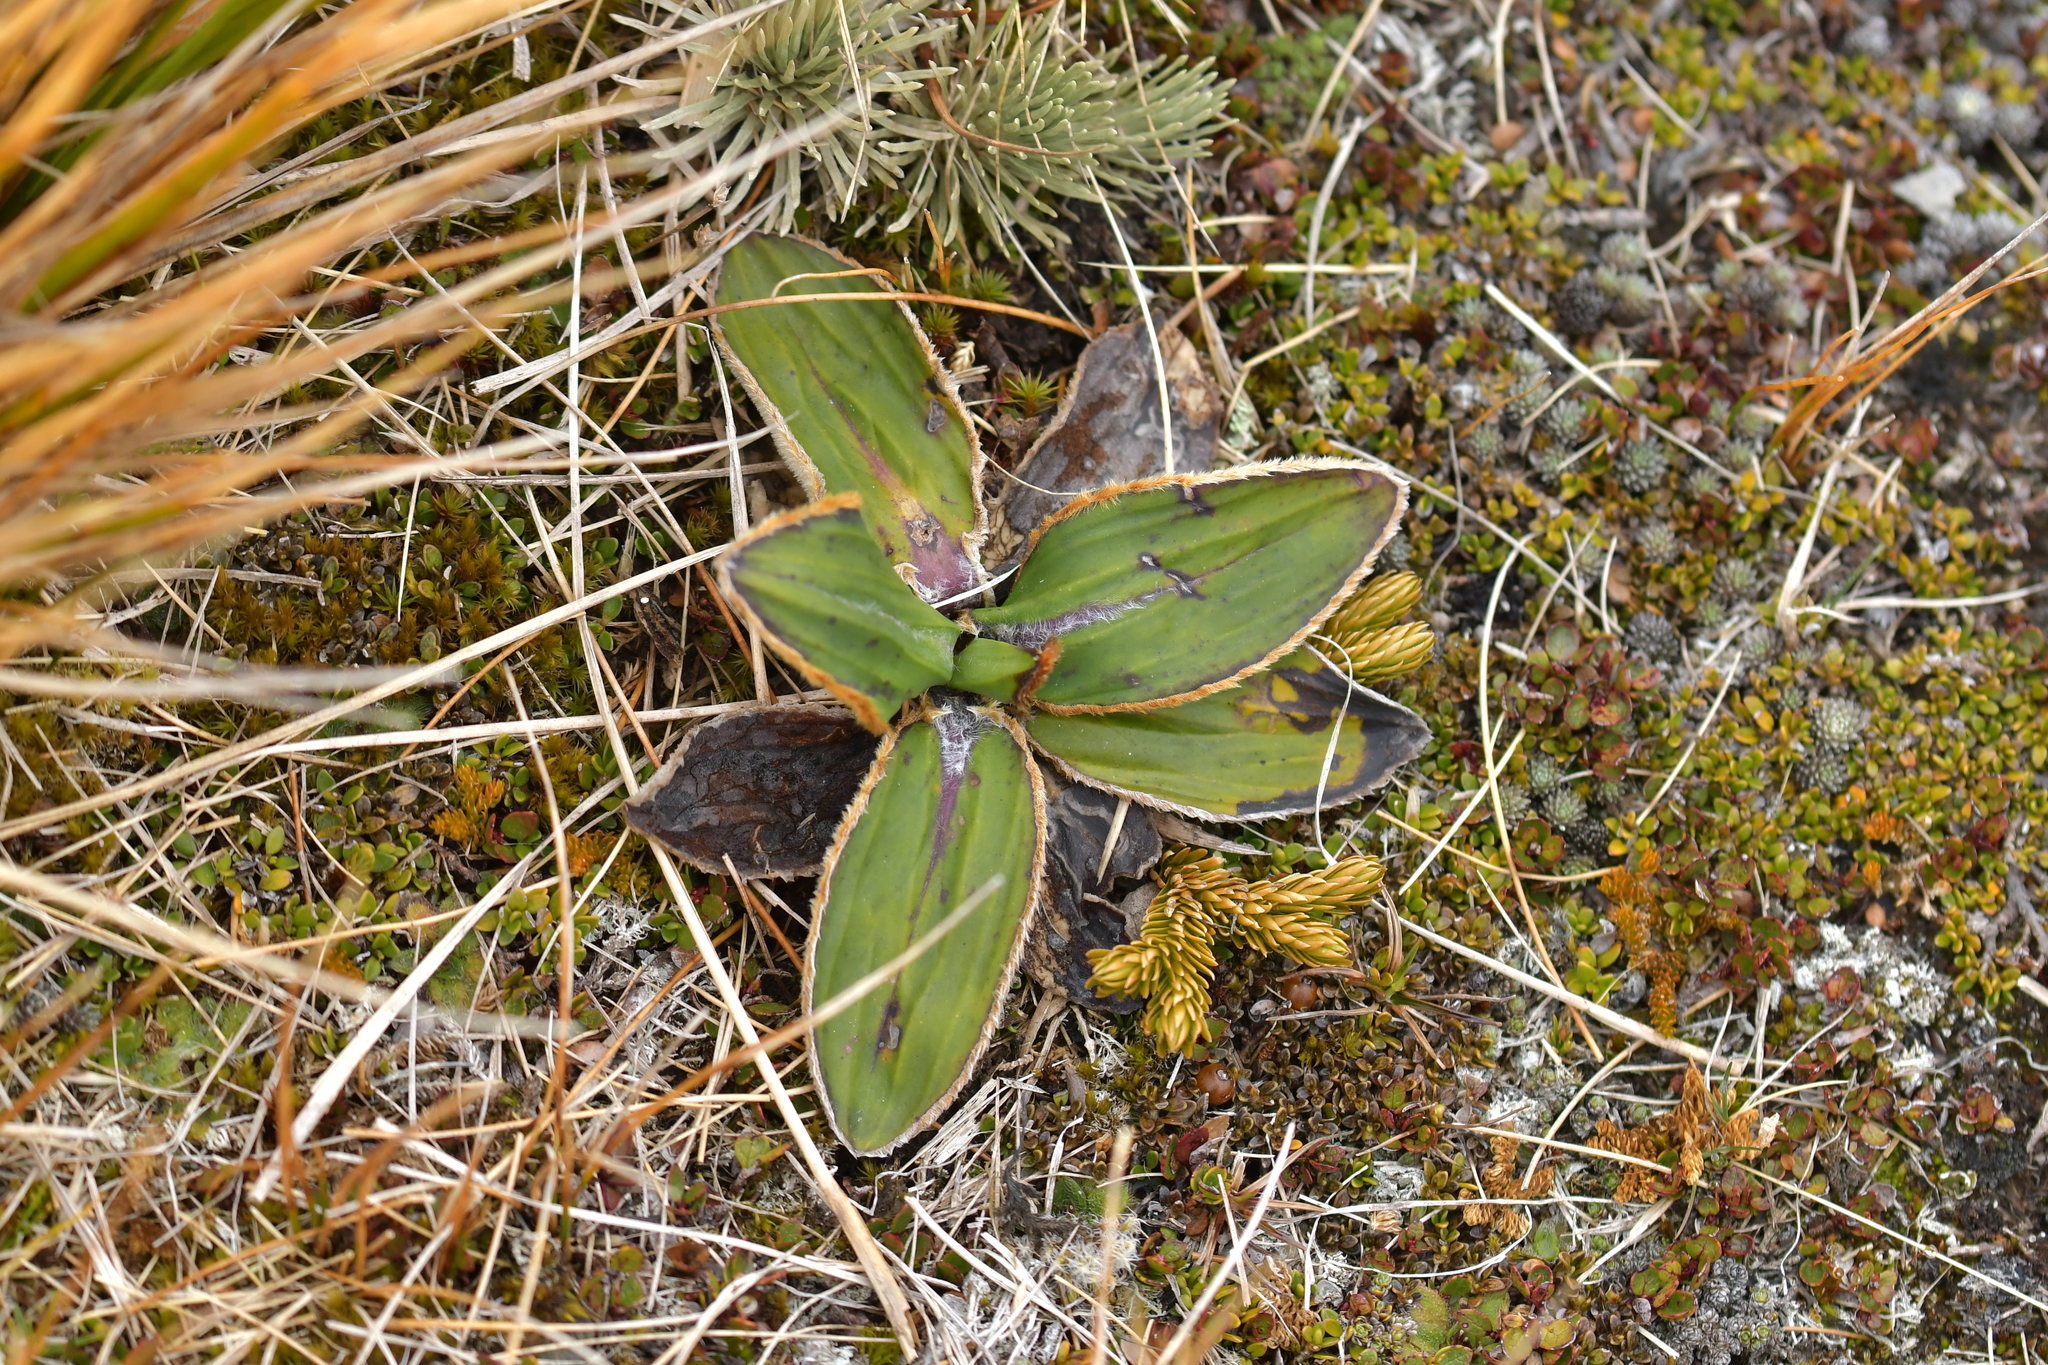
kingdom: Plantae
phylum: Tracheophyta
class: Magnoliopsida
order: Asterales
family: Asteraceae
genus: Celmisia
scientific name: Celmisia traversii
